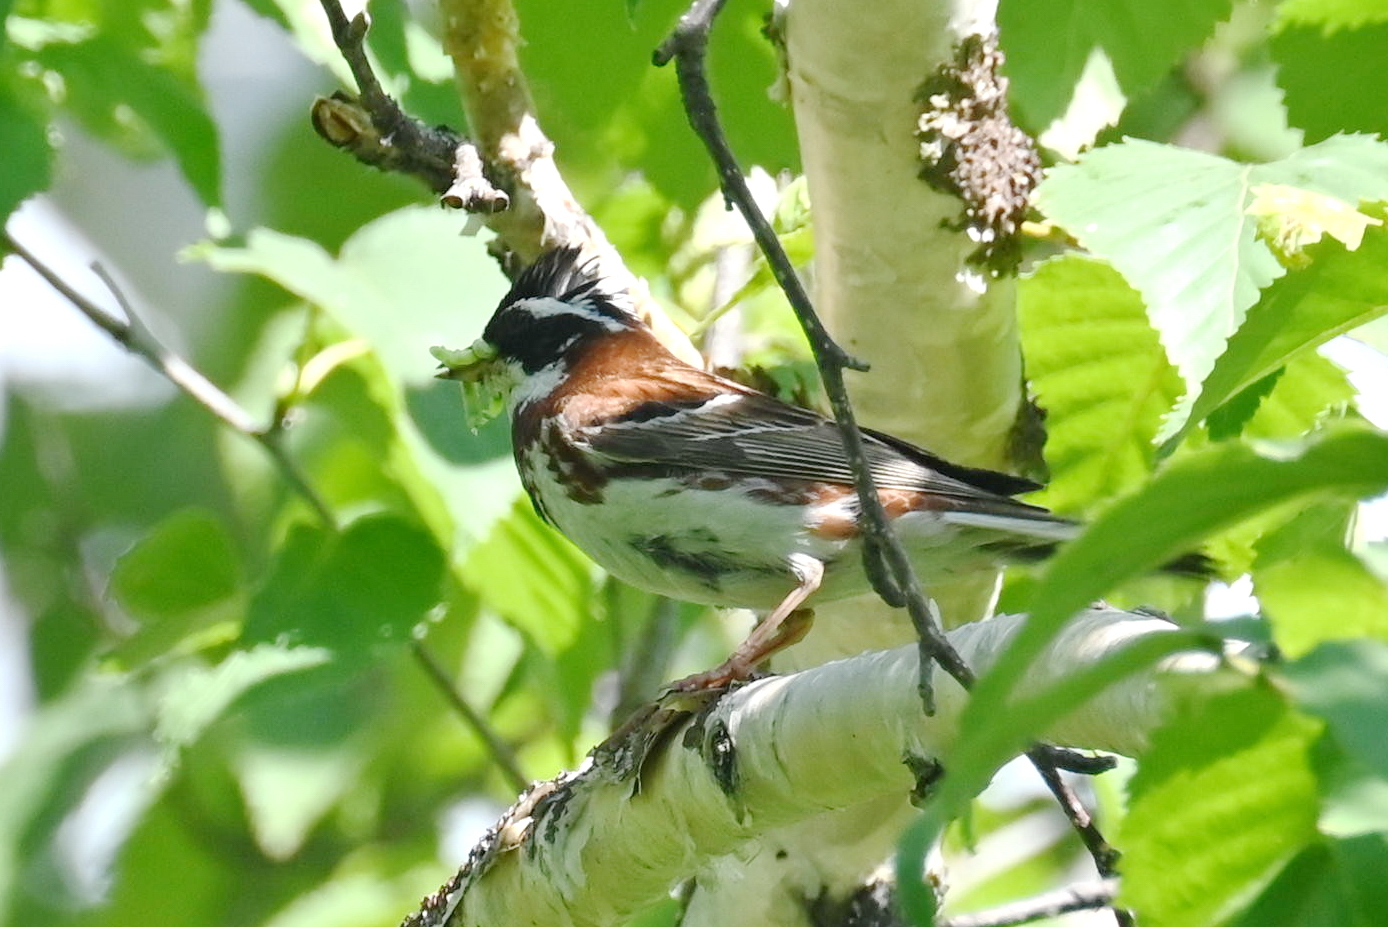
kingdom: Animalia
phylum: Chordata
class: Aves
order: Passeriformes
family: Emberizidae
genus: Emberiza
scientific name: Emberiza rustica
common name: Rustic bunting
